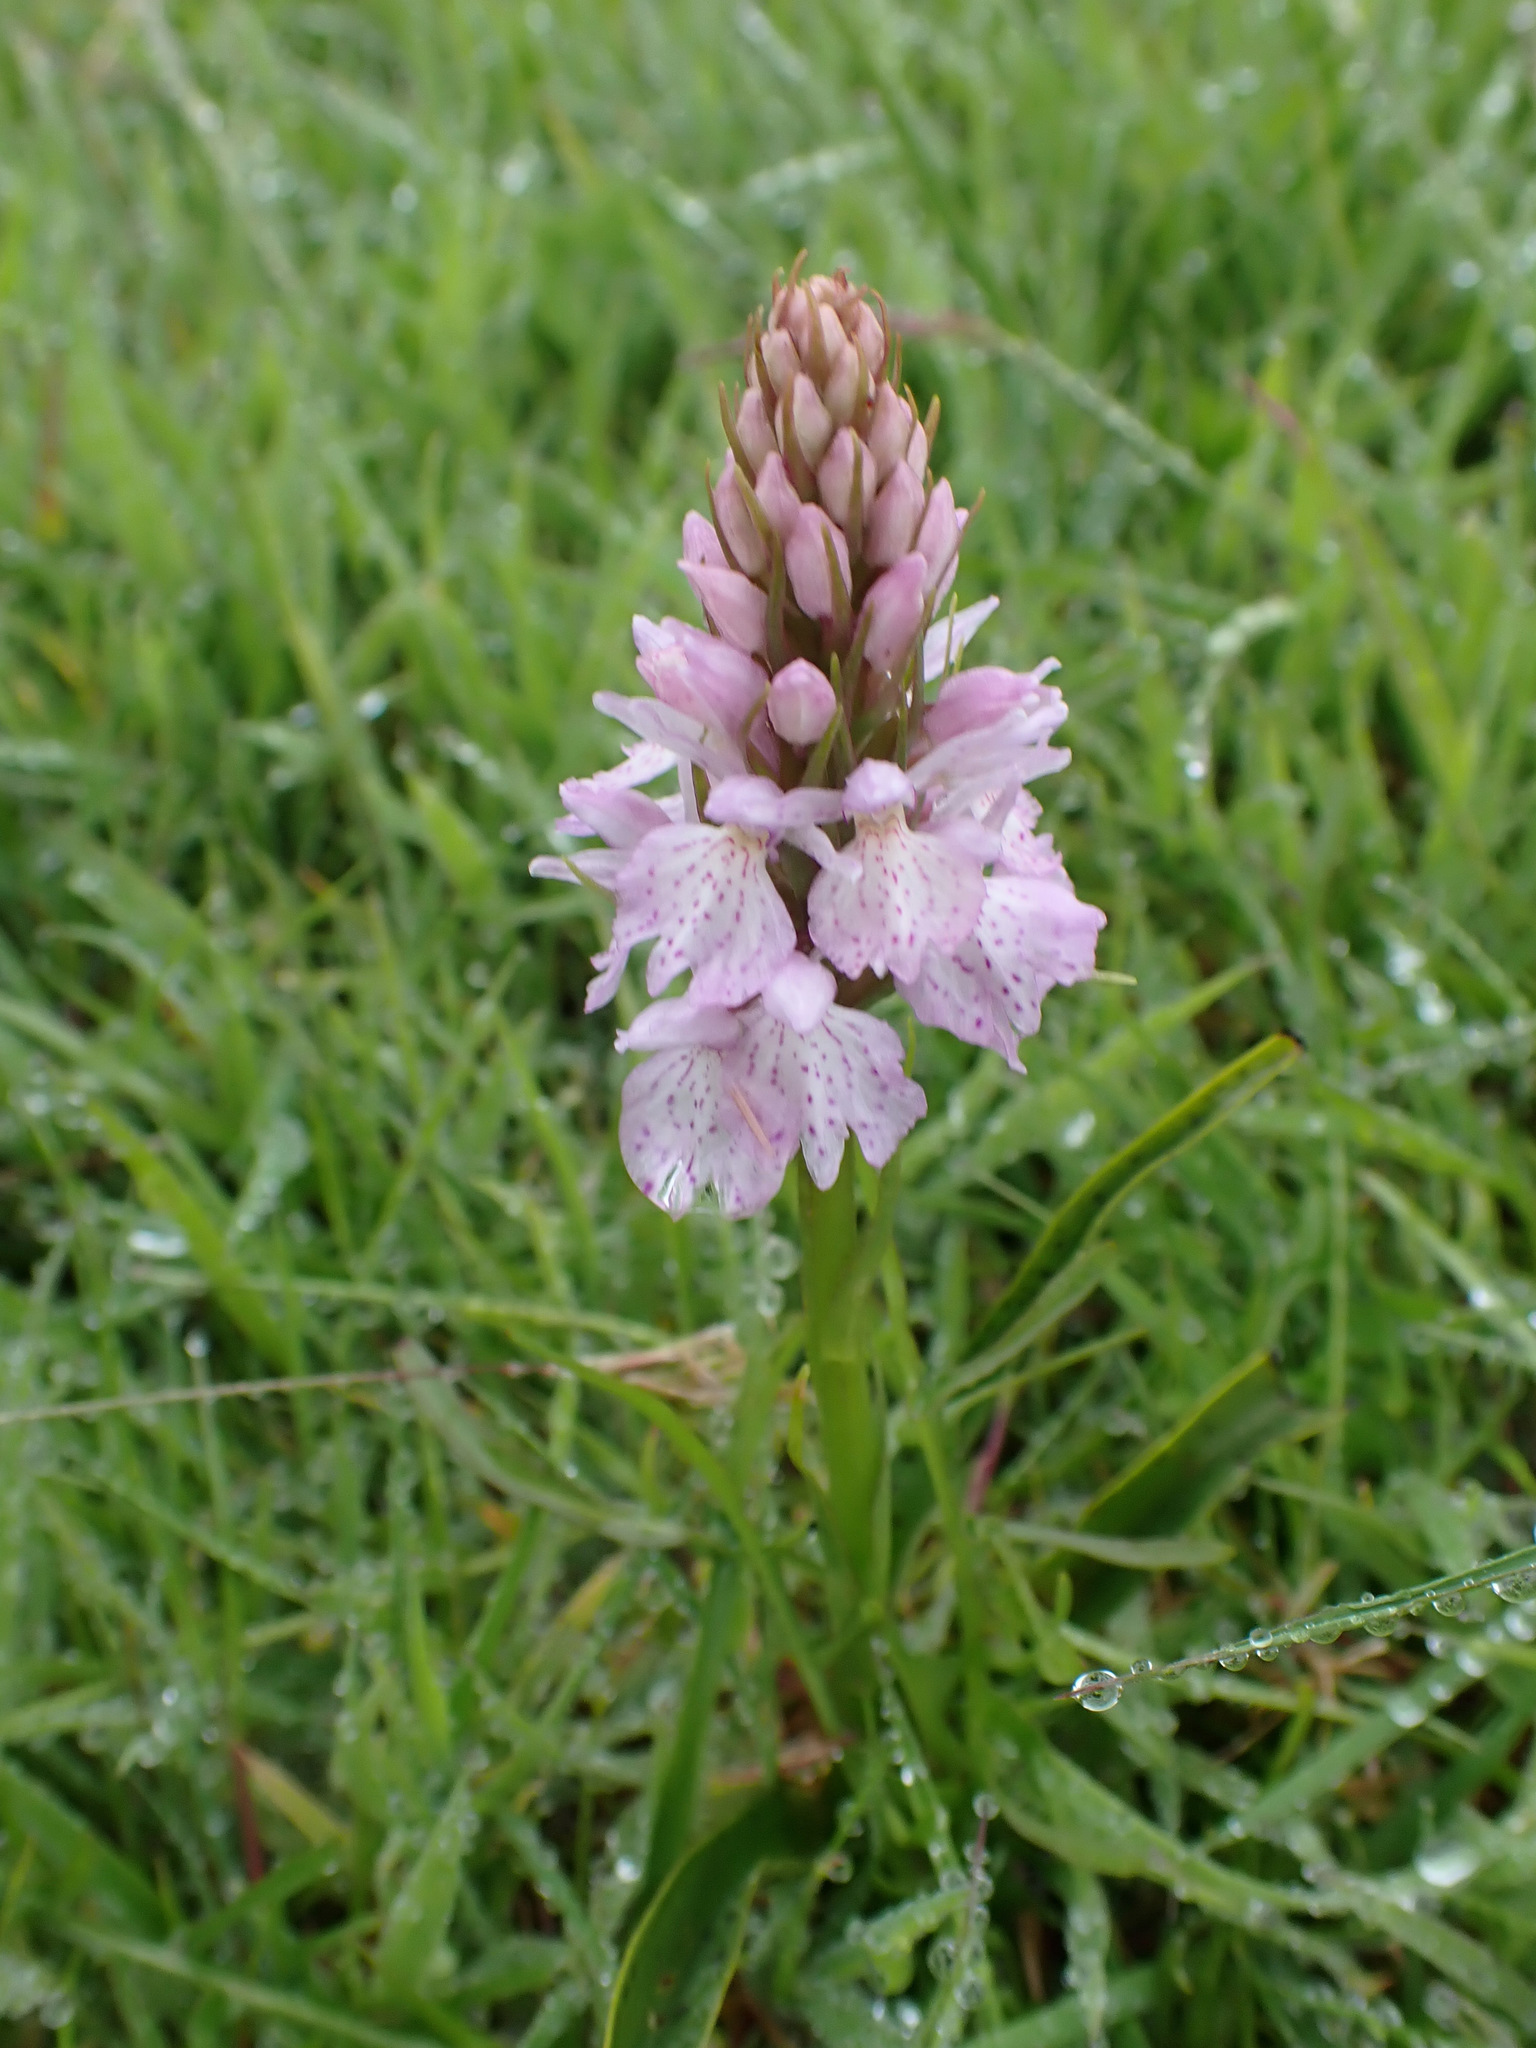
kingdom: Plantae
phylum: Tracheophyta
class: Liliopsida
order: Asparagales
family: Orchidaceae
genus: Dactylorhiza
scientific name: Dactylorhiza maculata
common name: Heath spotted-orchid
